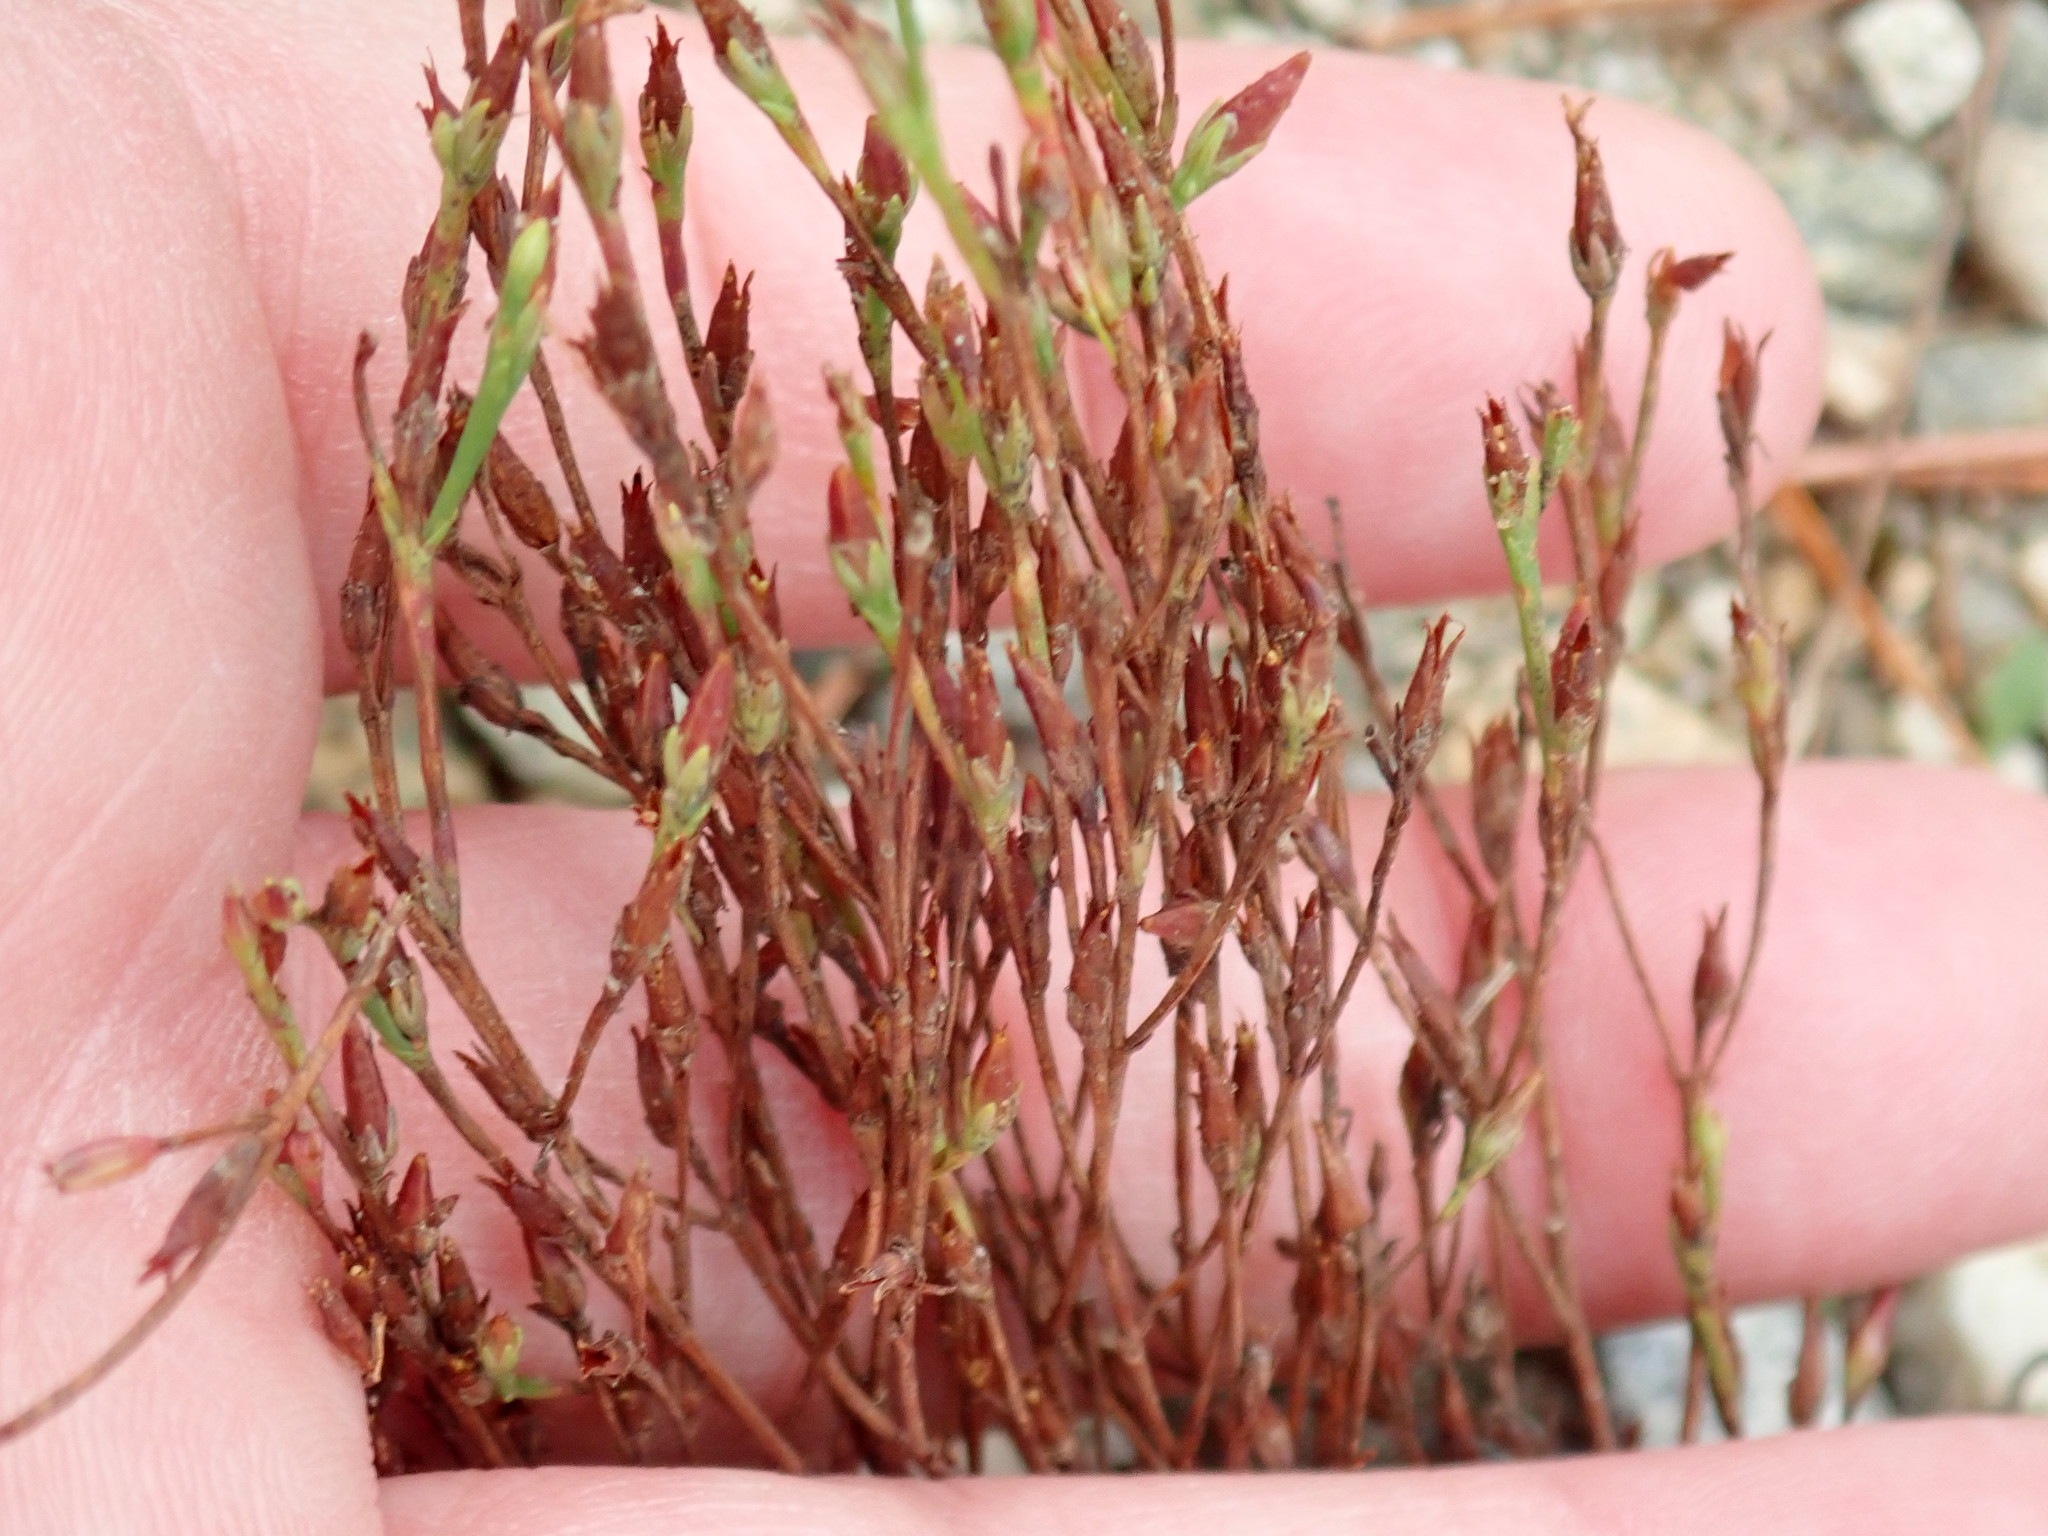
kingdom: Plantae
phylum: Tracheophyta
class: Magnoliopsida
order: Malpighiales
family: Hypericaceae
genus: Hypericum
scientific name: Hypericum gentianoides
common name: Gentian-leaved st. john's-wort
